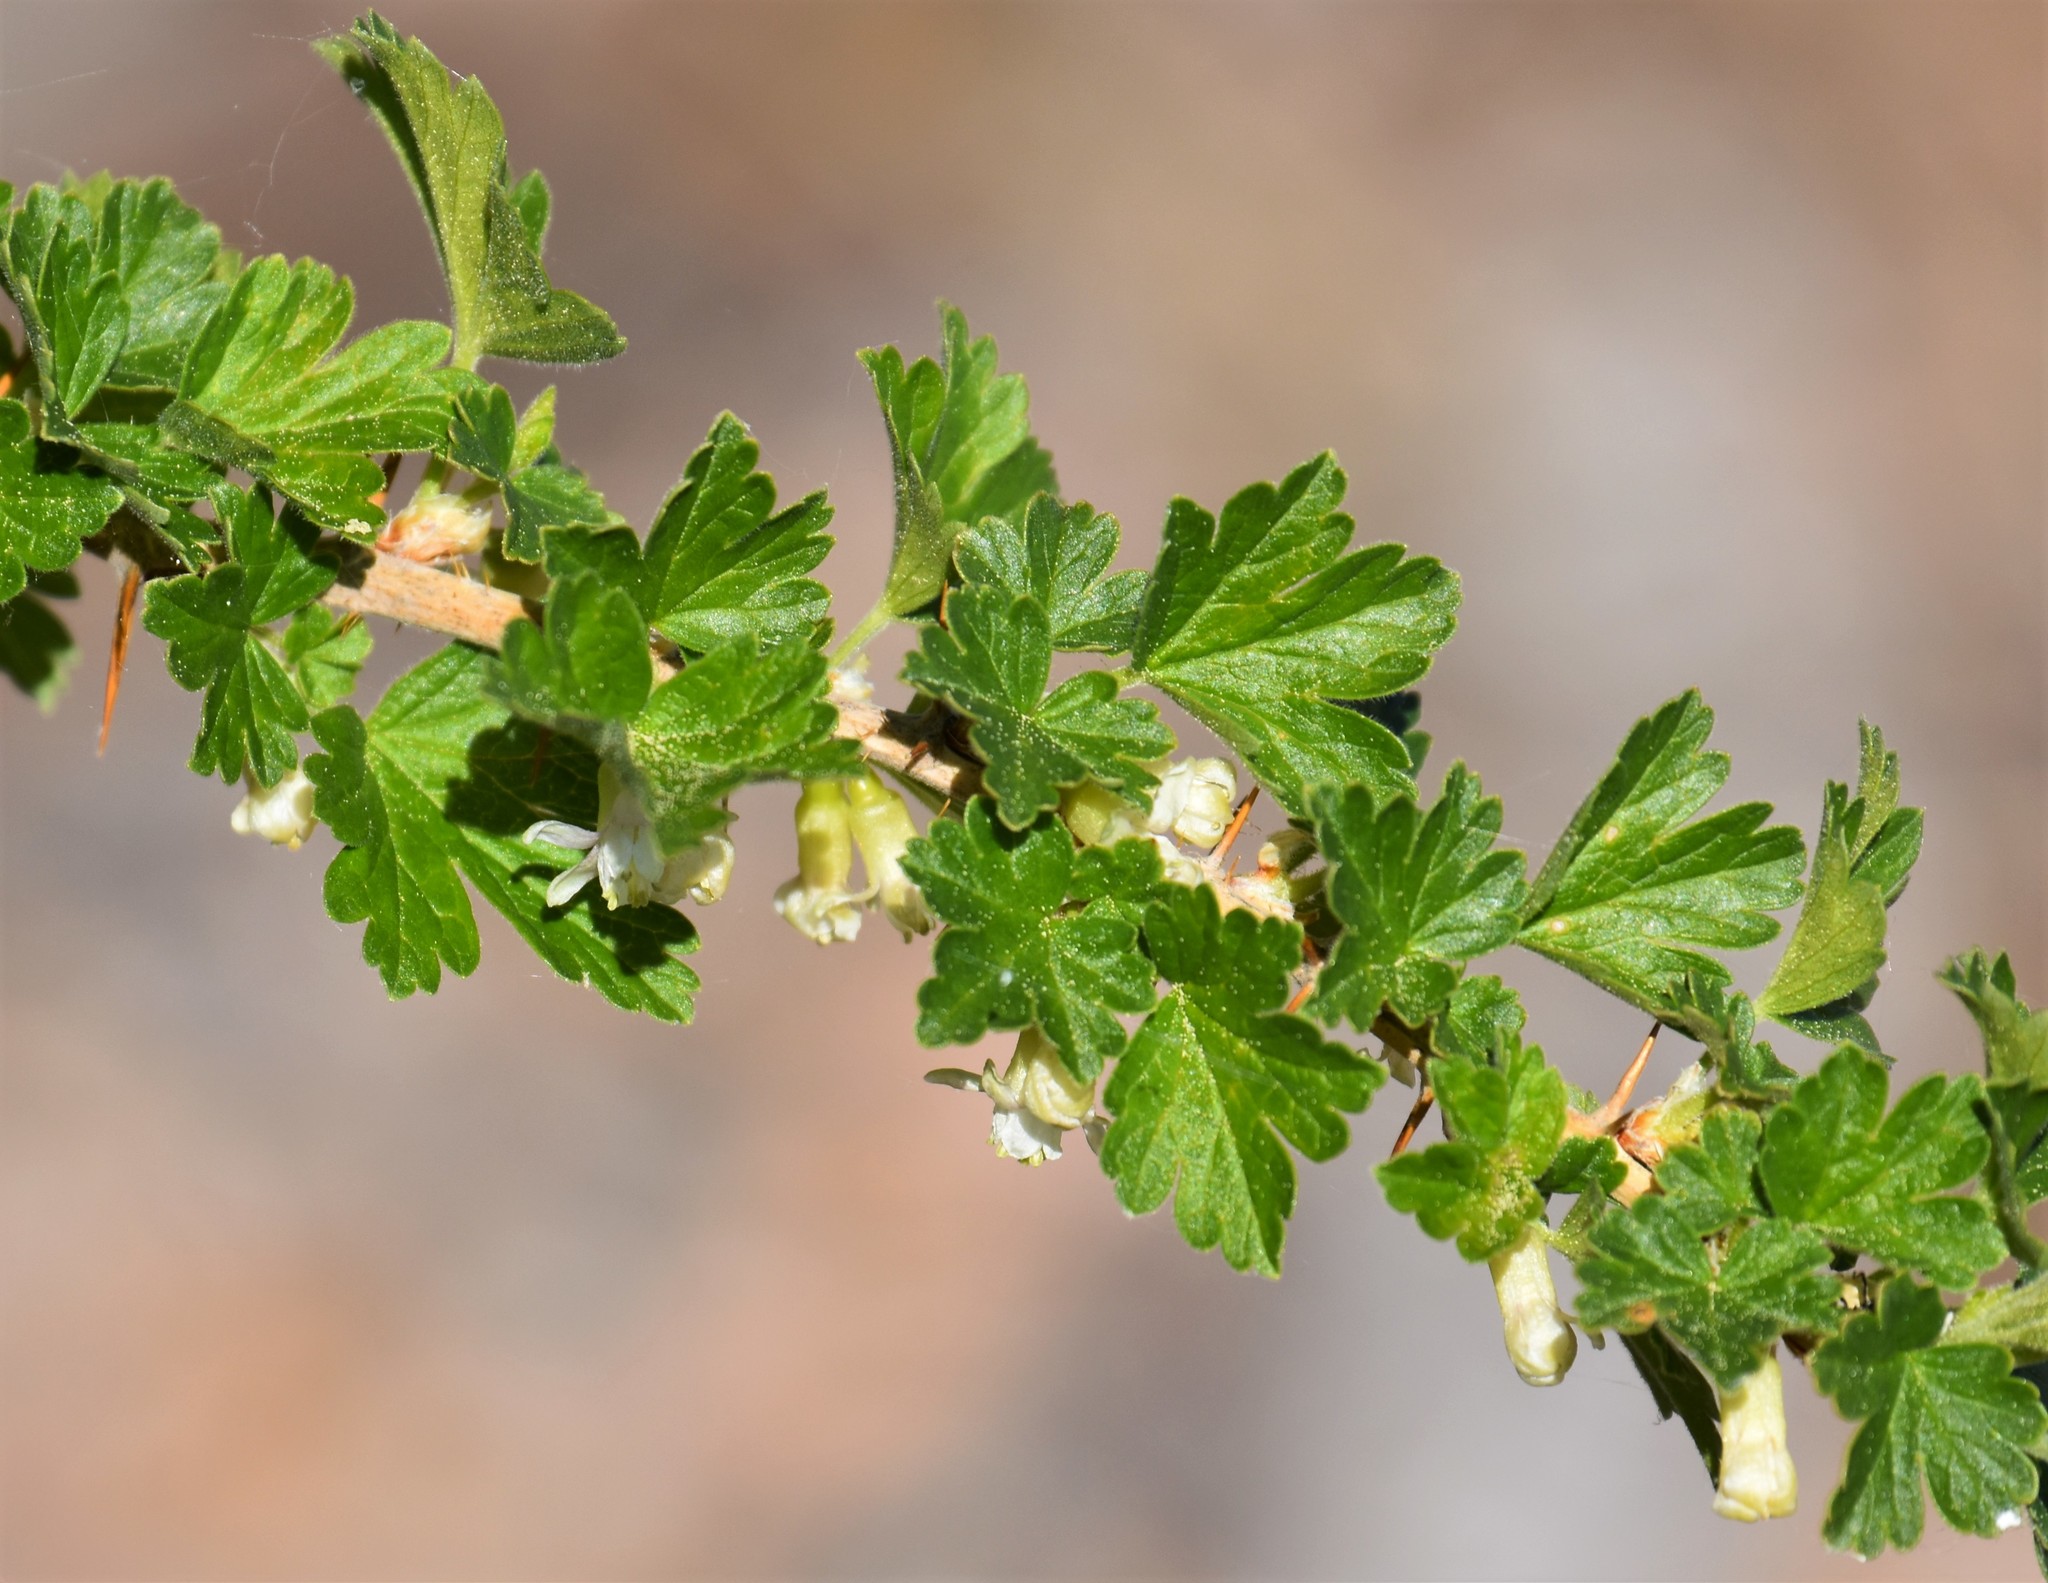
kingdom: Plantae
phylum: Tracheophyta
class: Magnoliopsida
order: Saxifragales
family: Grossulariaceae
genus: Ribes
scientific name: Ribes oxyacanthoides
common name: Northern gooseberry
